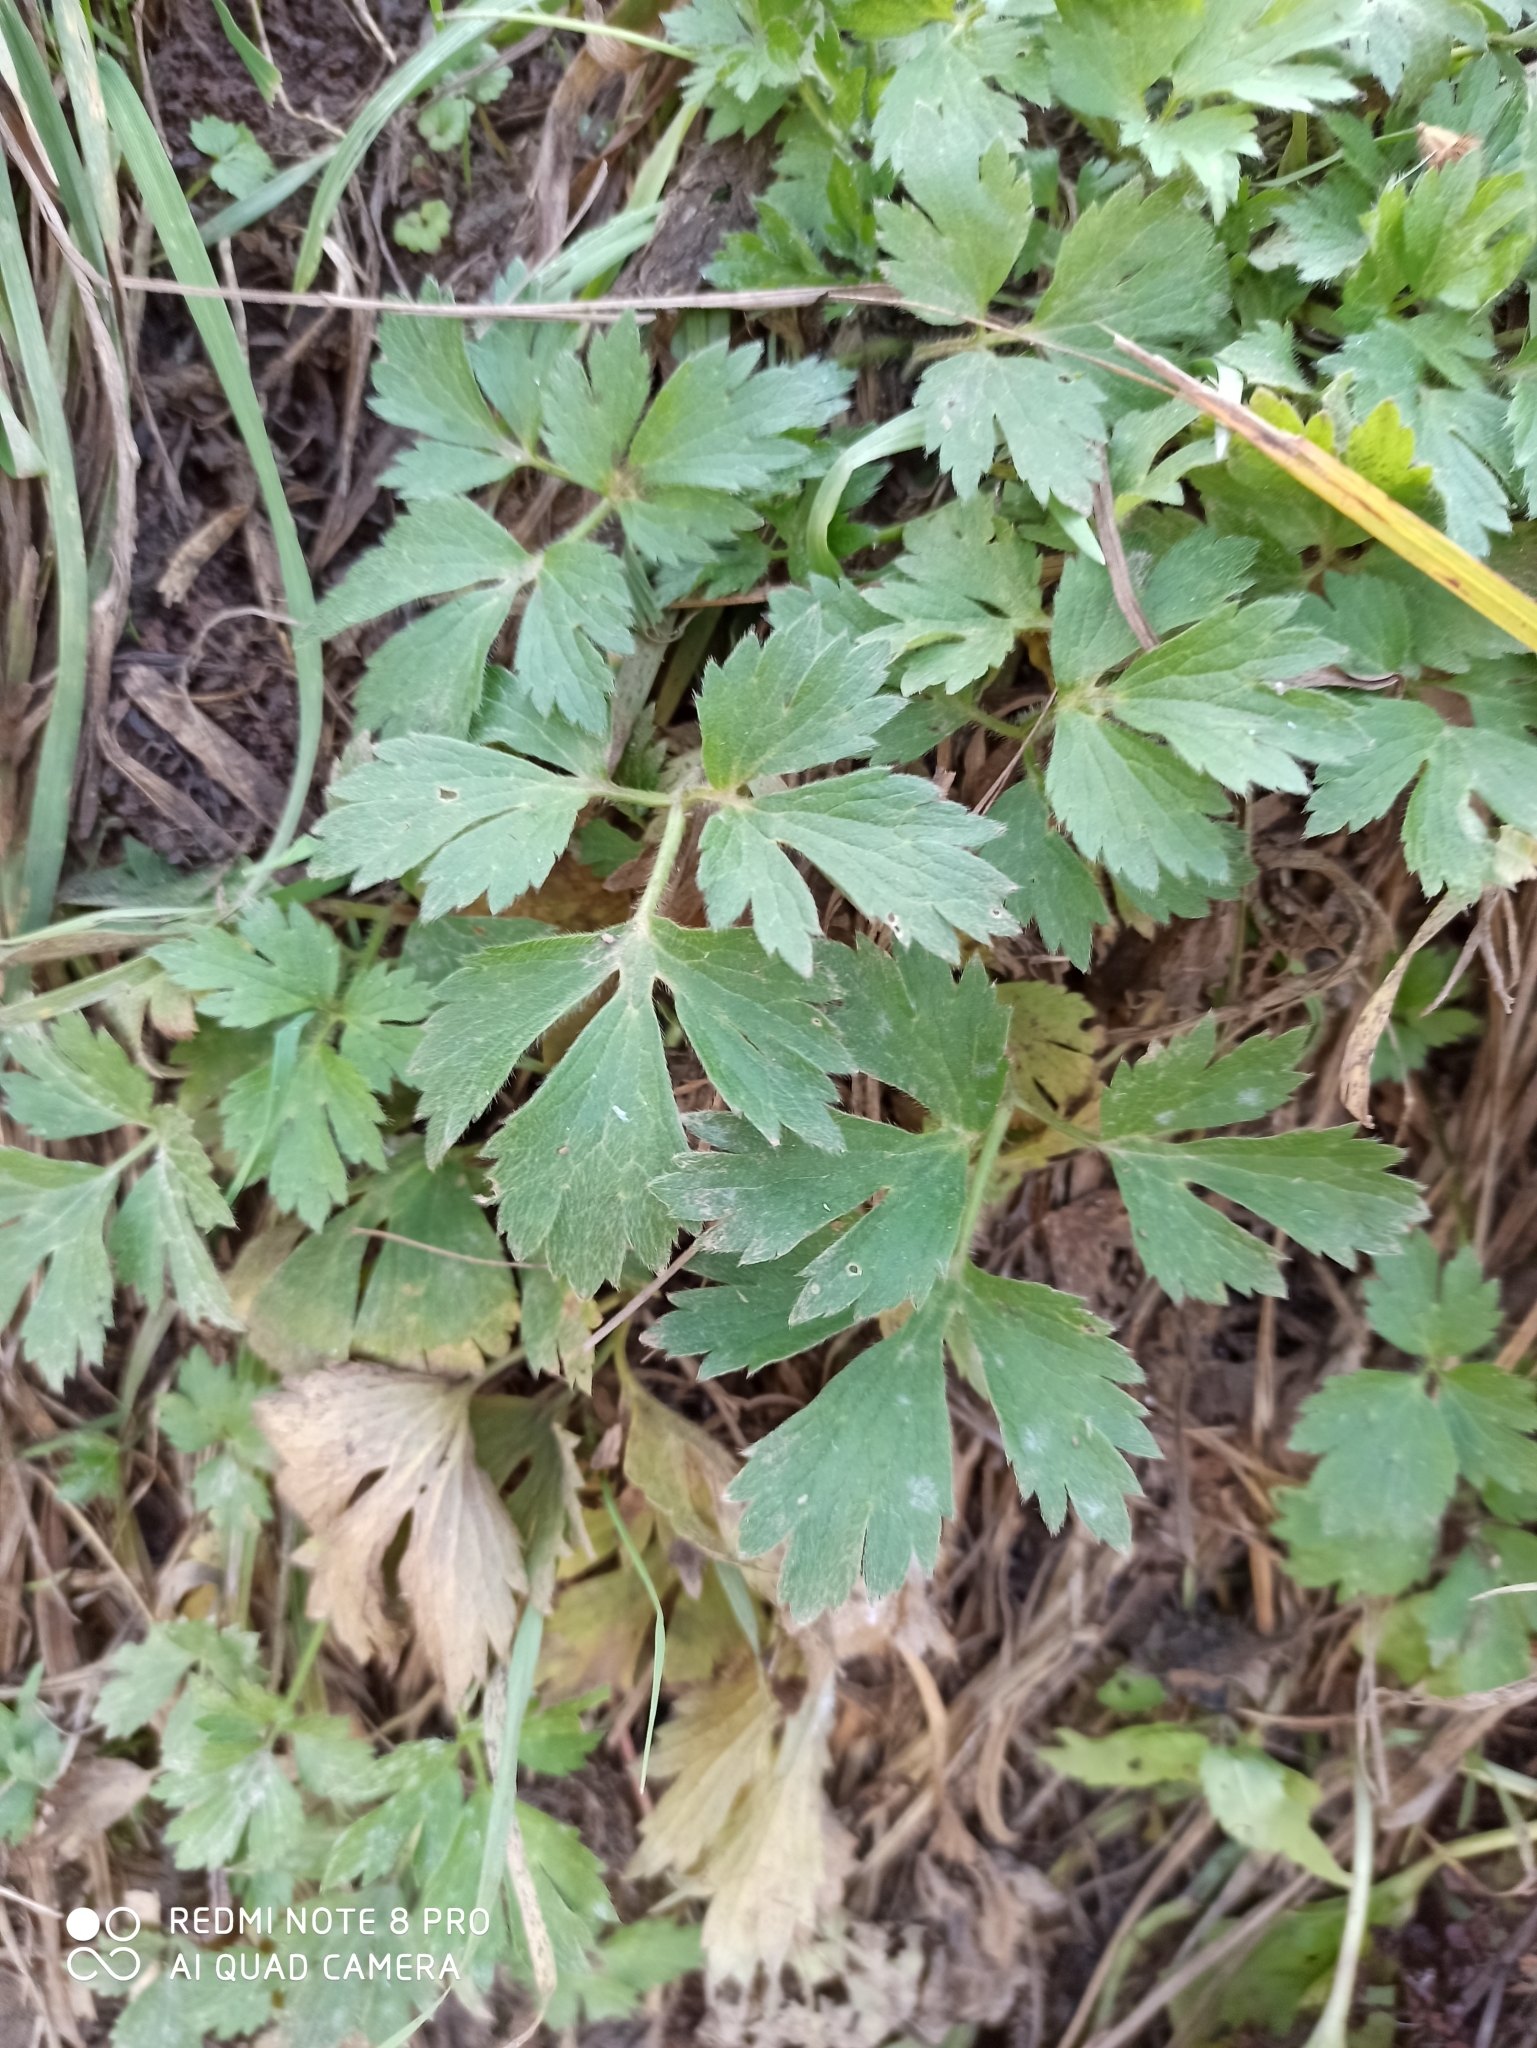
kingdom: Plantae
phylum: Tracheophyta
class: Magnoliopsida
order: Ranunculales
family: Ranunculaceae
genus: Ranunculus
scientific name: Ranunculus repens
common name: Creeping buttercup
